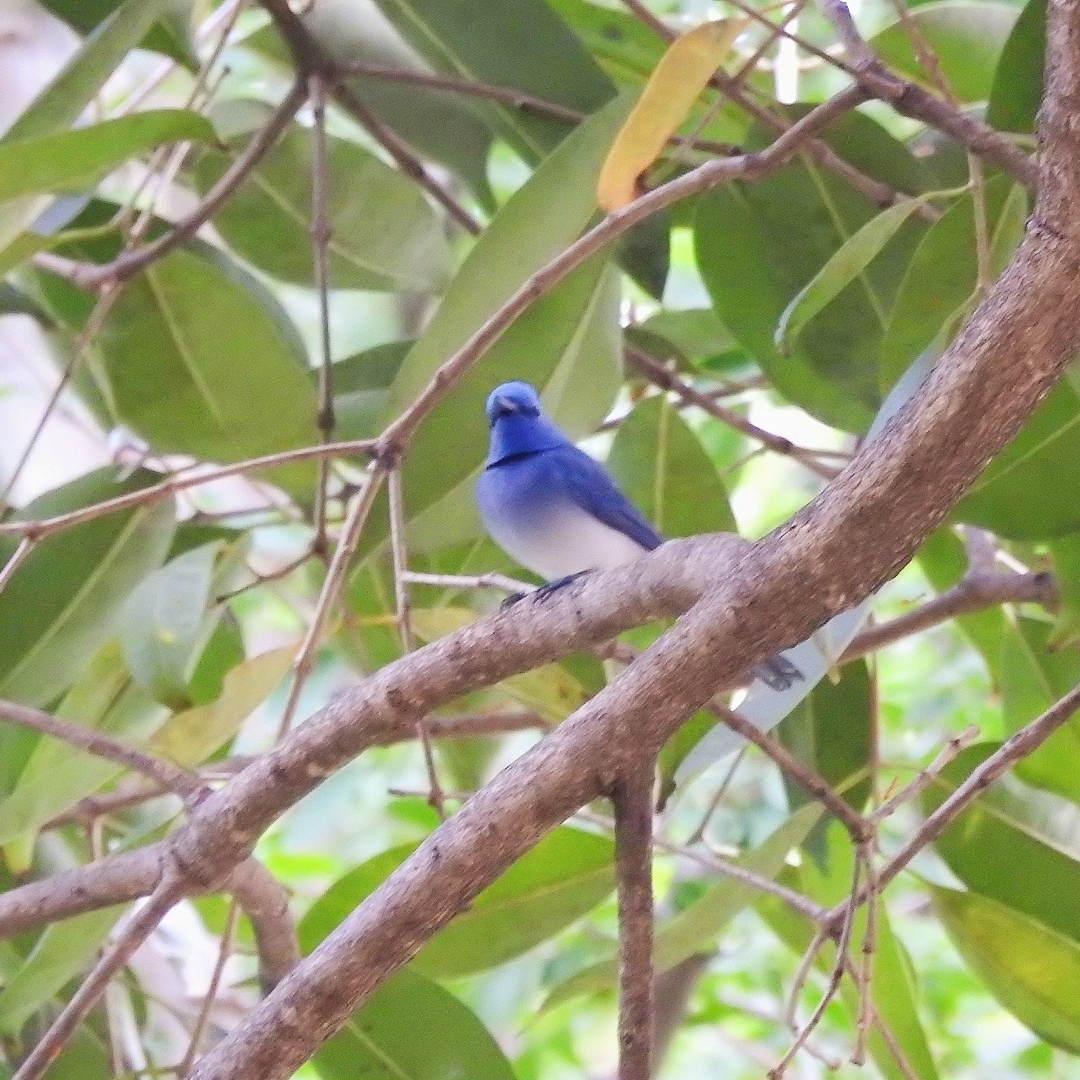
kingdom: Animalia
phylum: Chordata
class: Aves
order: Passeriformes
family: Monarchidae
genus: Hypothymis
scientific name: Hypothymis azurea
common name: Black-naped monarch
